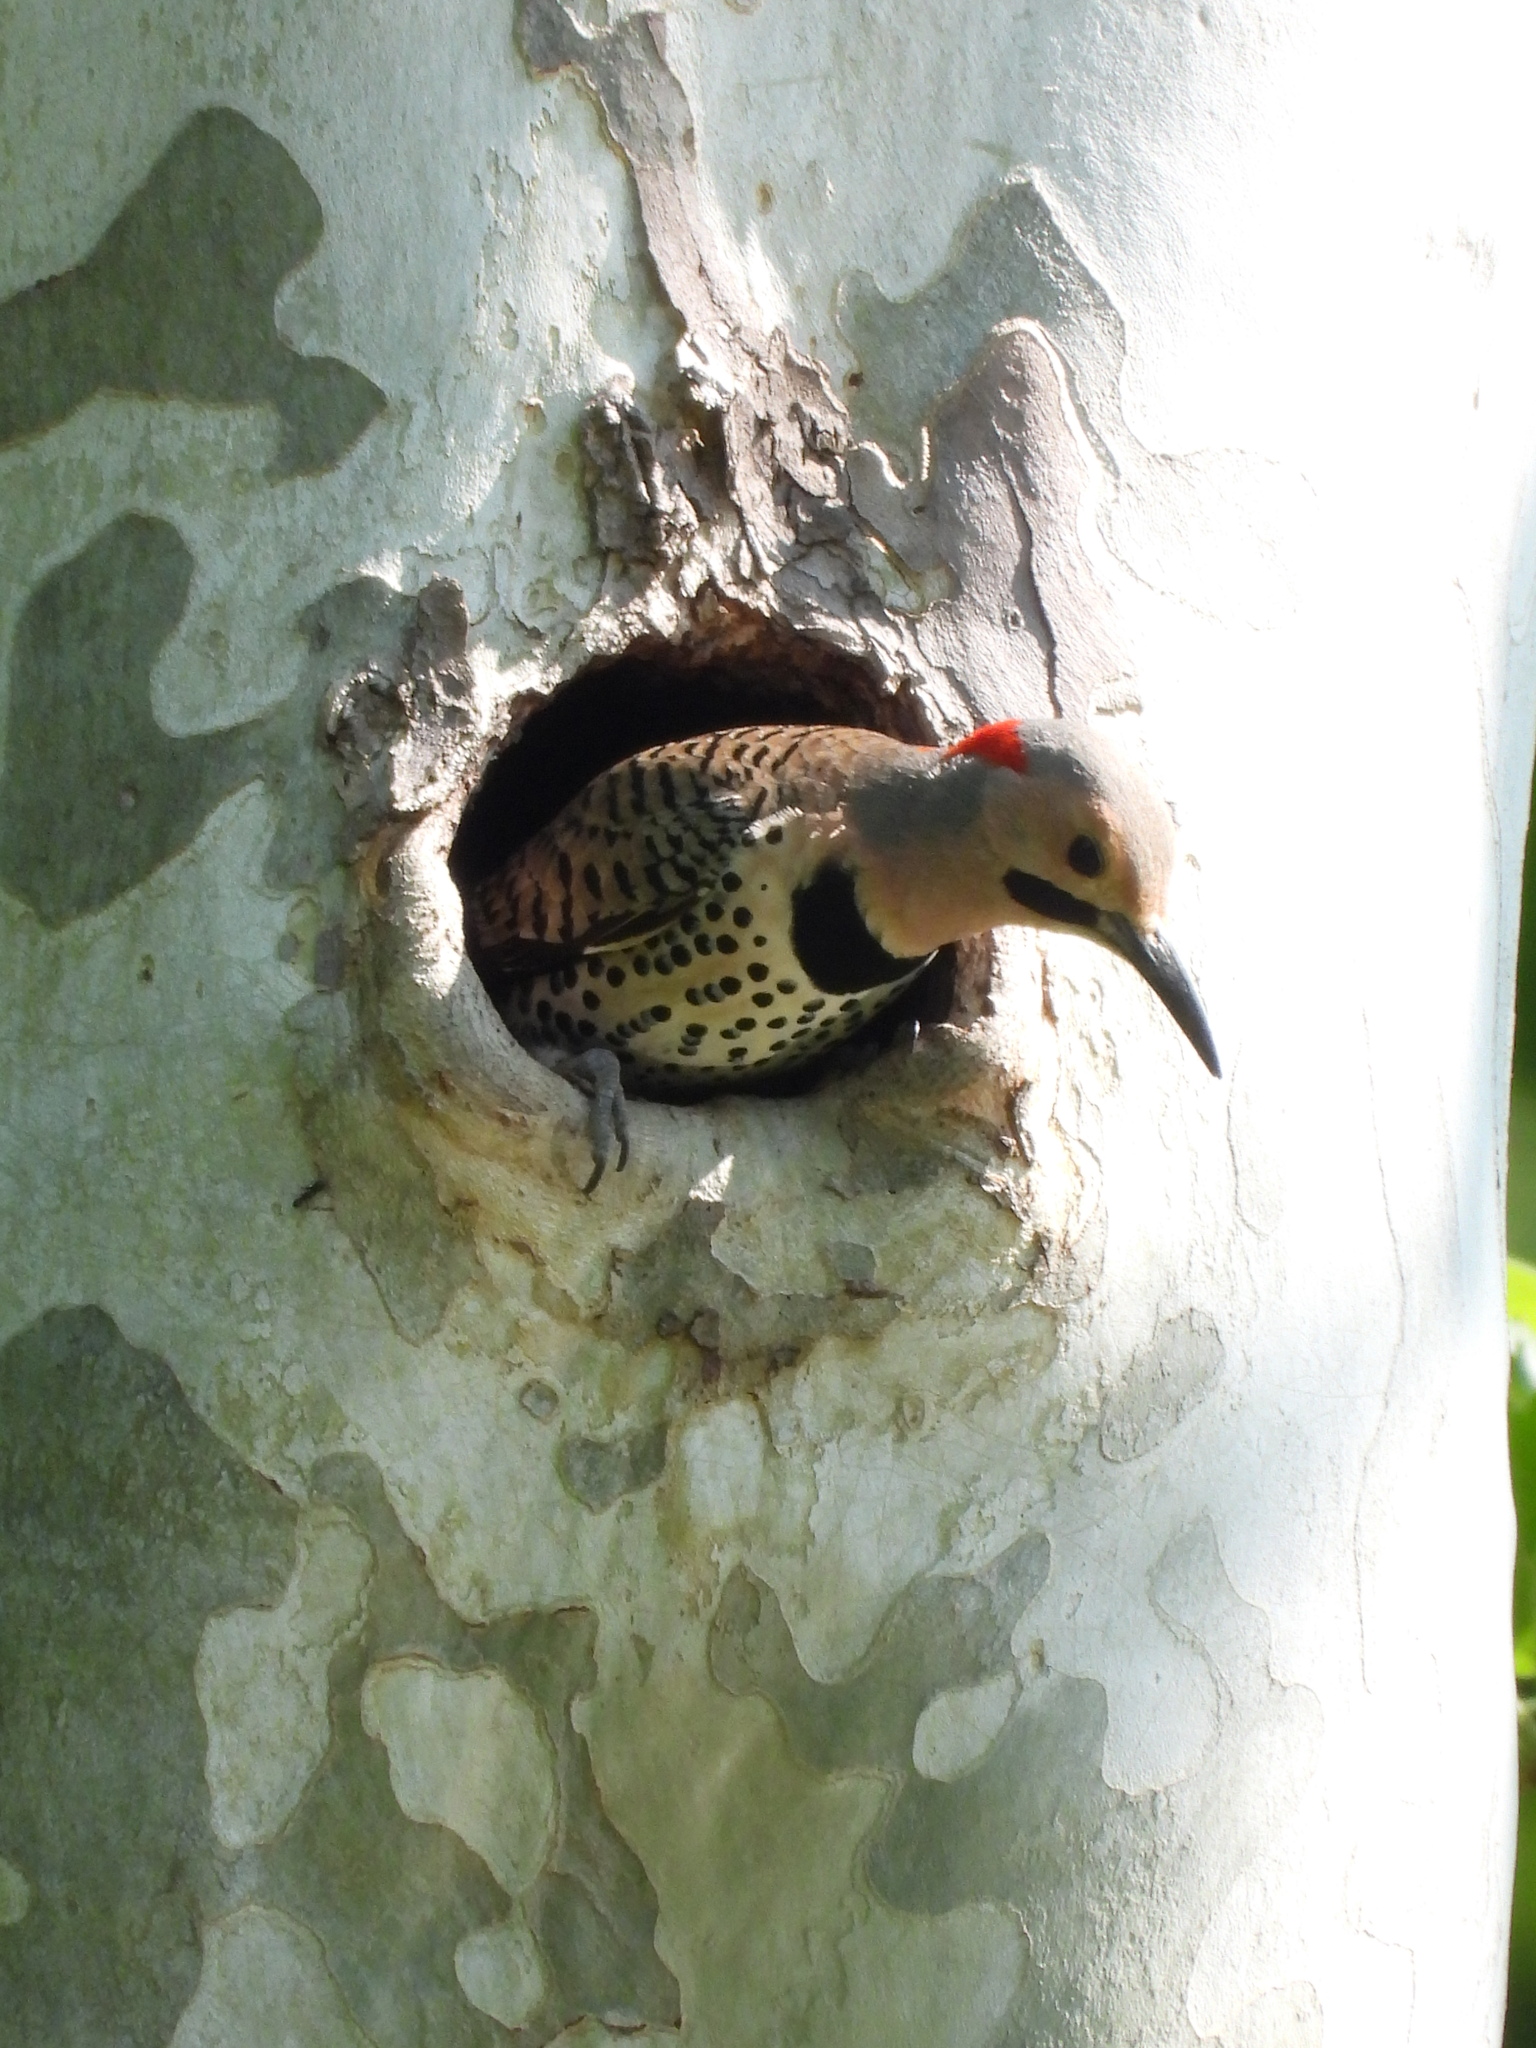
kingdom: Animalia
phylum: Chordata
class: Aves
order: Piciformes
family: Picidae
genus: Colaptes
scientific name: Colaptes auratus
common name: Northern flicker
